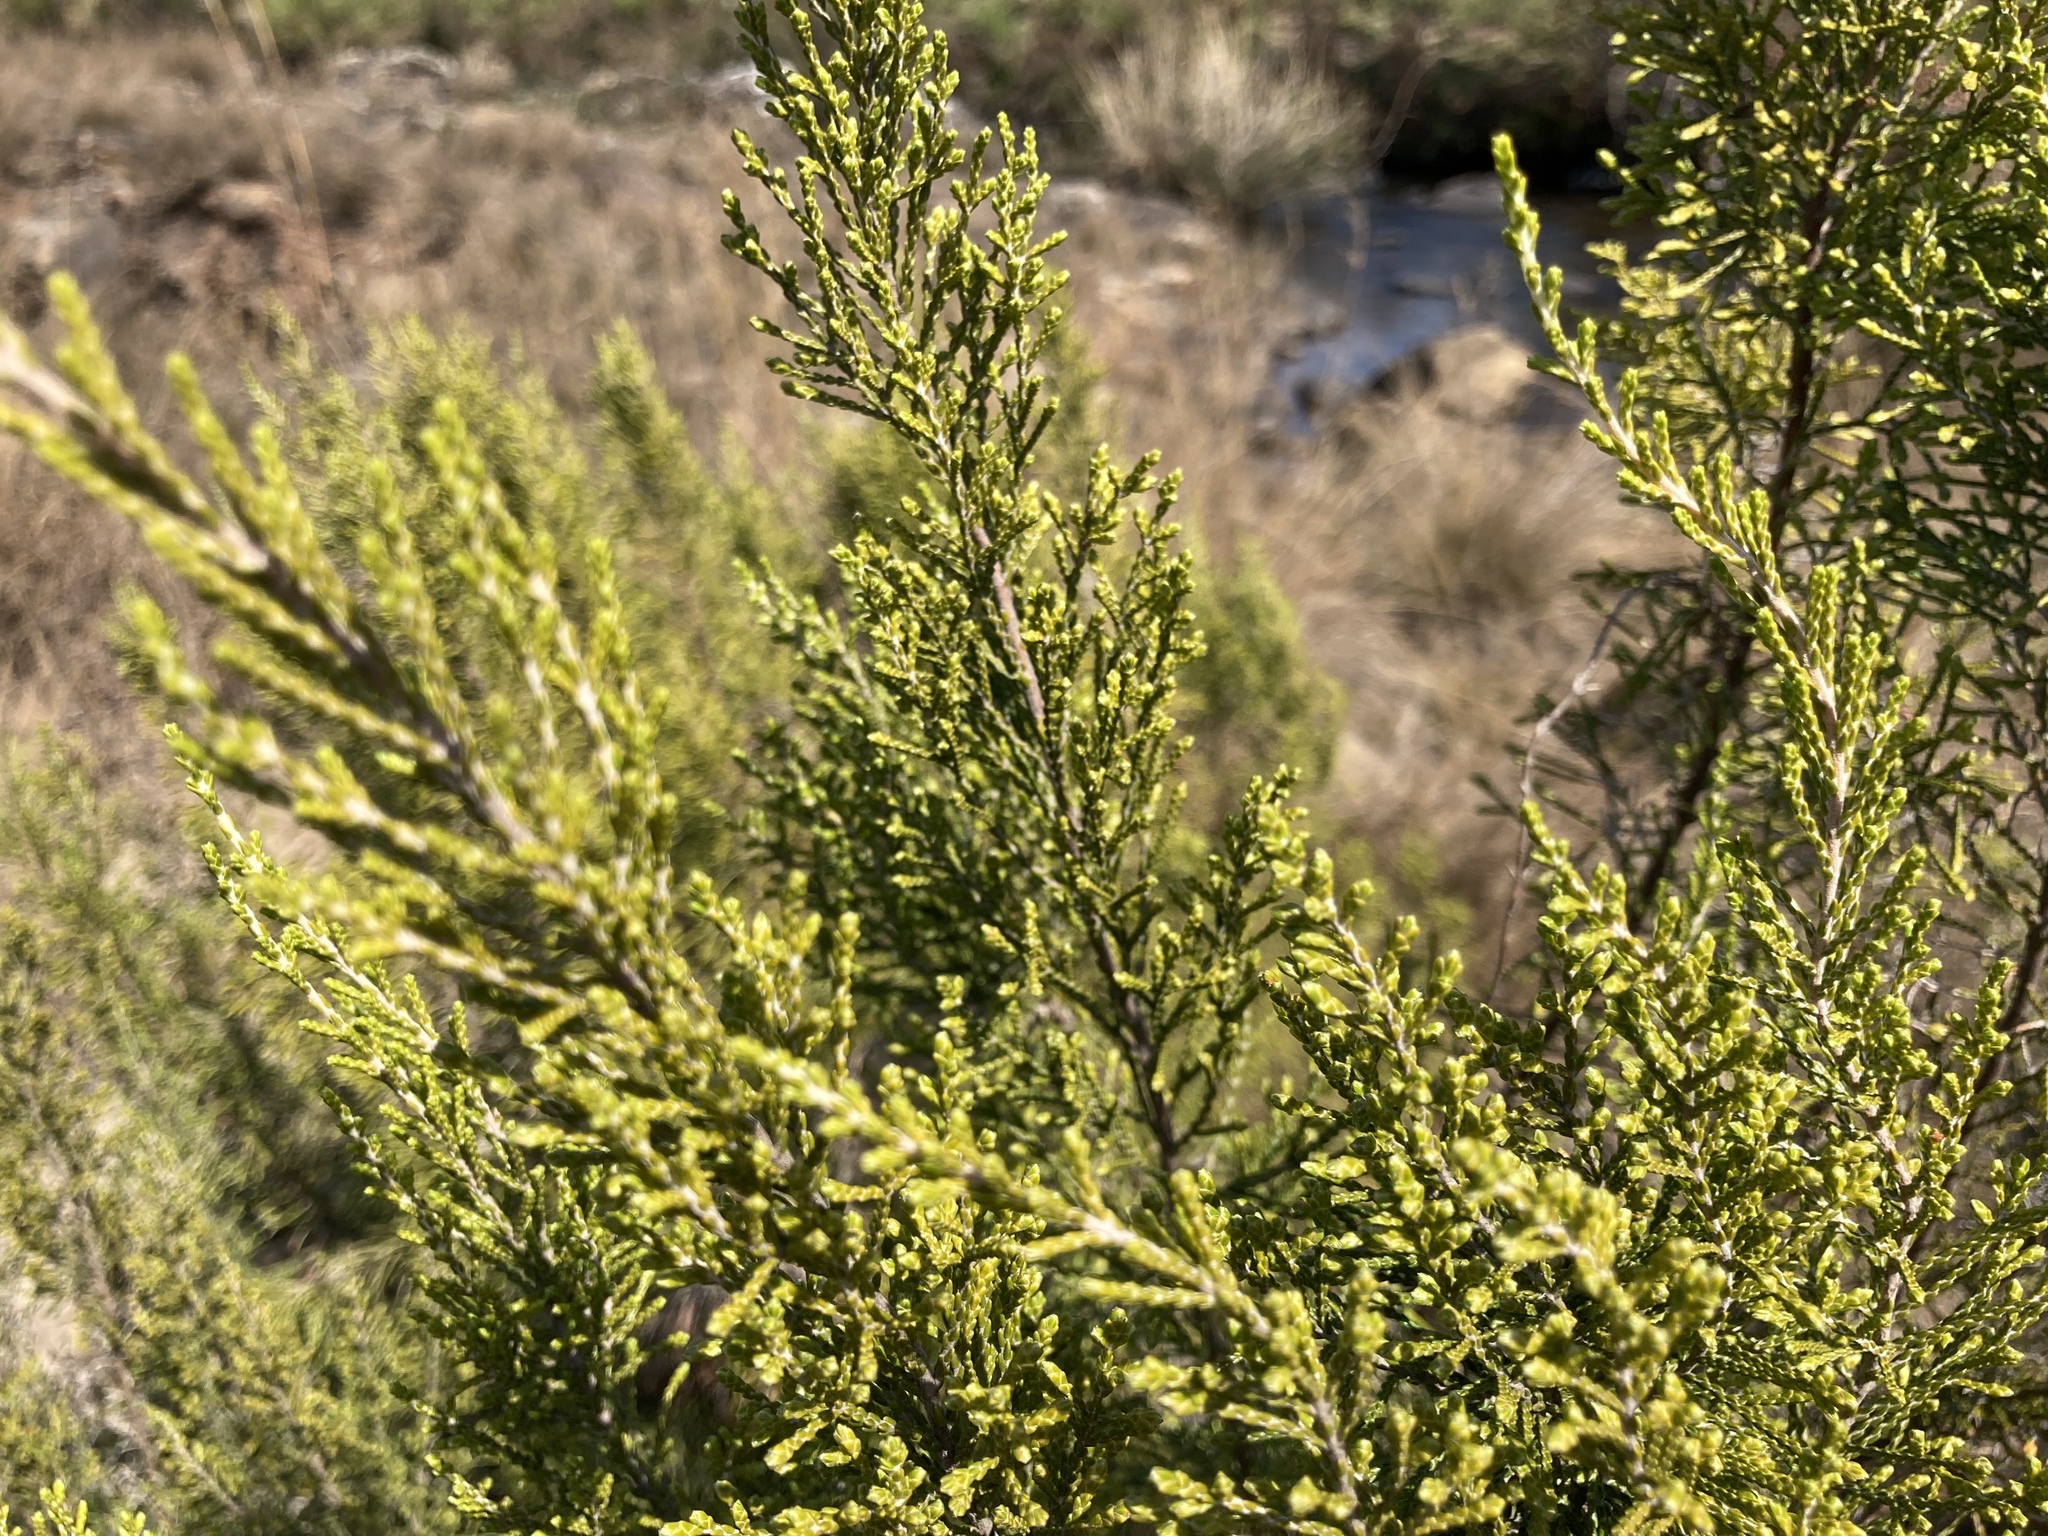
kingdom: Plantae
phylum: Tracheophyta
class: Magnoliopsida
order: Malvales
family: Thymelaeaceae
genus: Passerina
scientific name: Passerina montana
